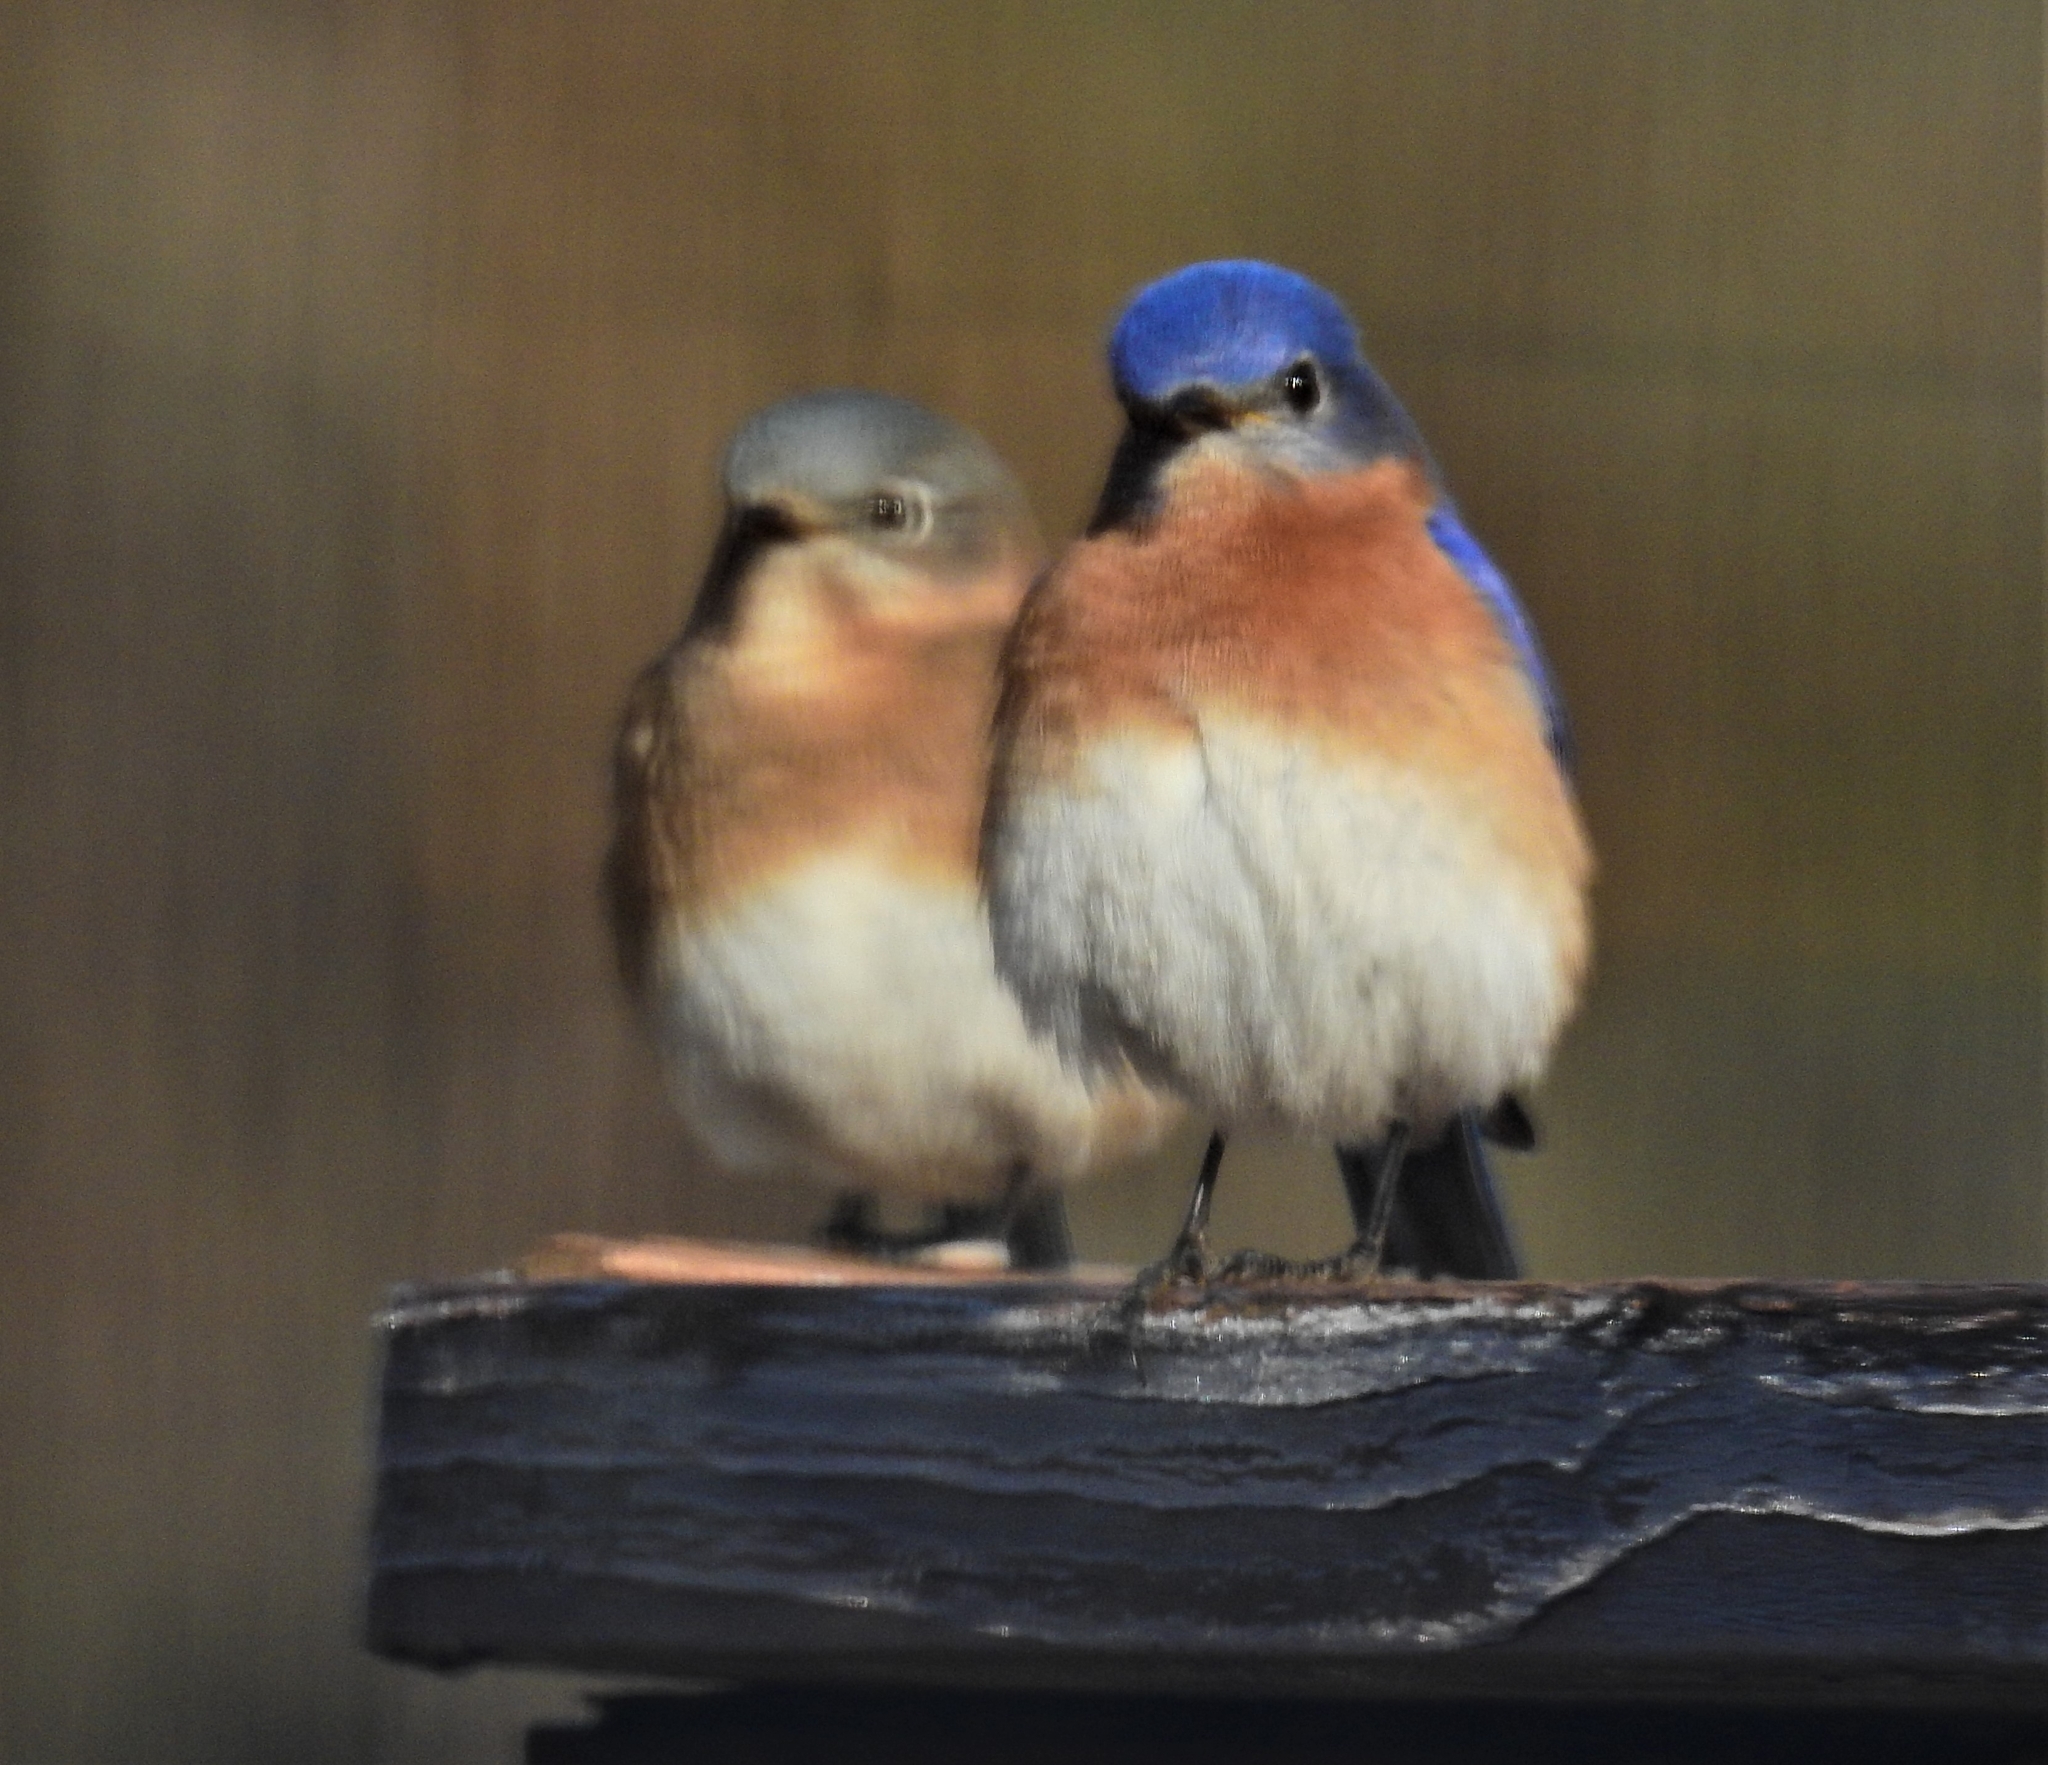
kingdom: Animalia
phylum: Chordata
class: Aves
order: Passeriformes
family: Turdidae
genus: Sialia
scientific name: Sialia sialis
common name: Eastern bluebird
